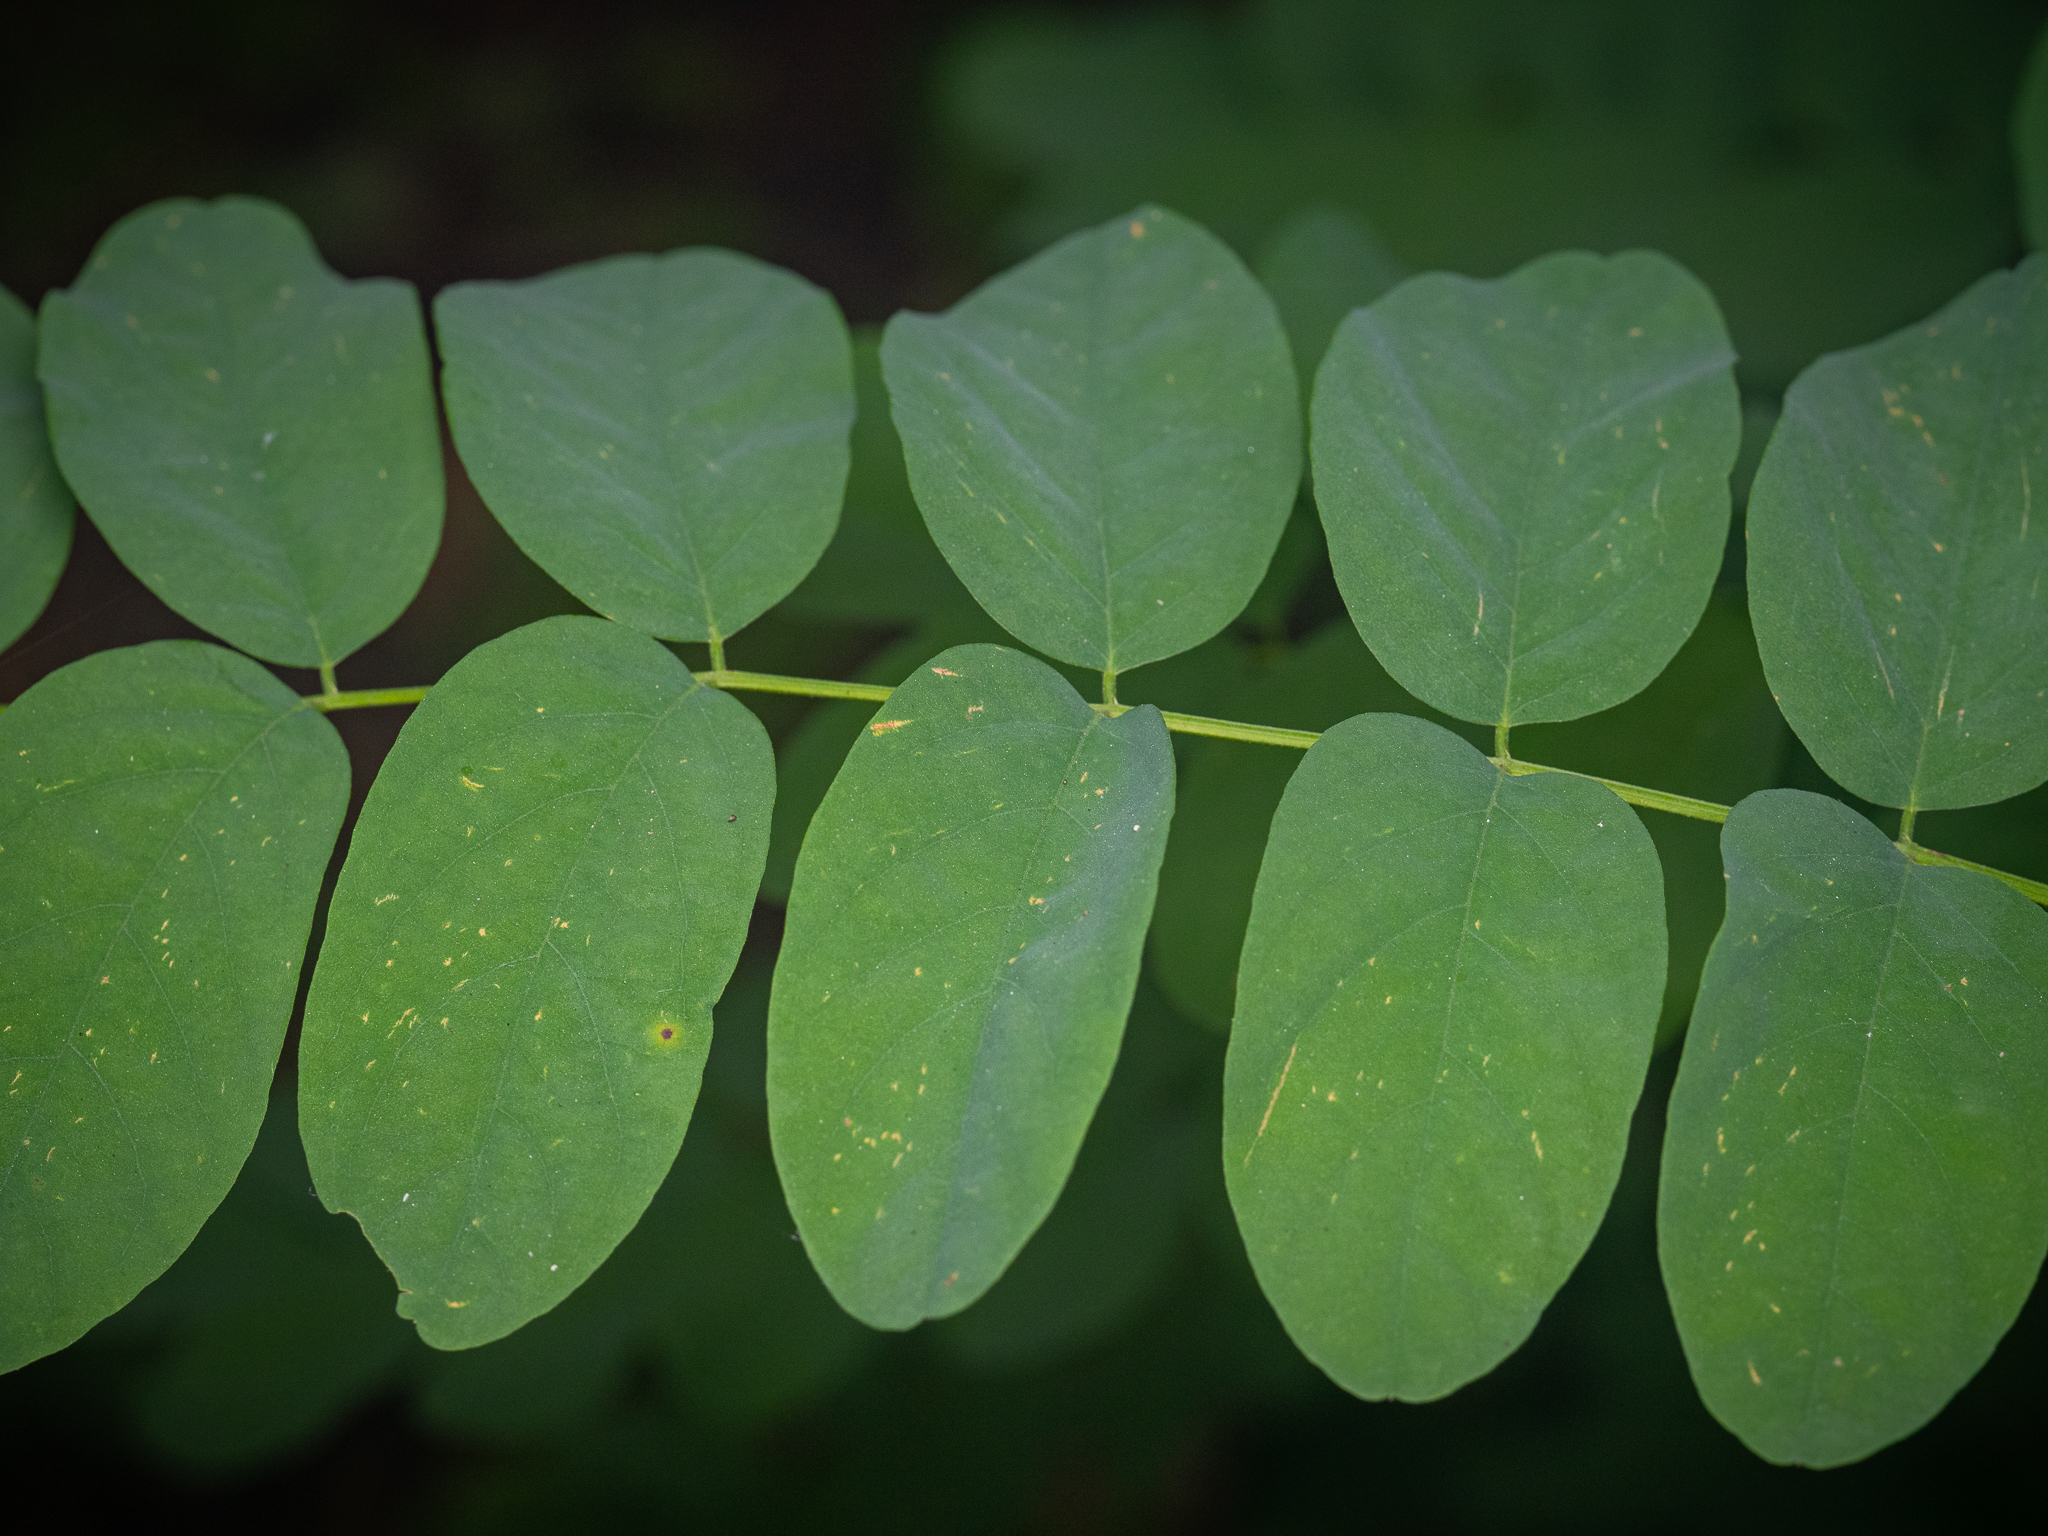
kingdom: Plantae
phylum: Tracheophyta
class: Magnoliopsida
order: Fabales
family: Fabaceae
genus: Robinia
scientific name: Robinia pseudoacacia
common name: Black locust
